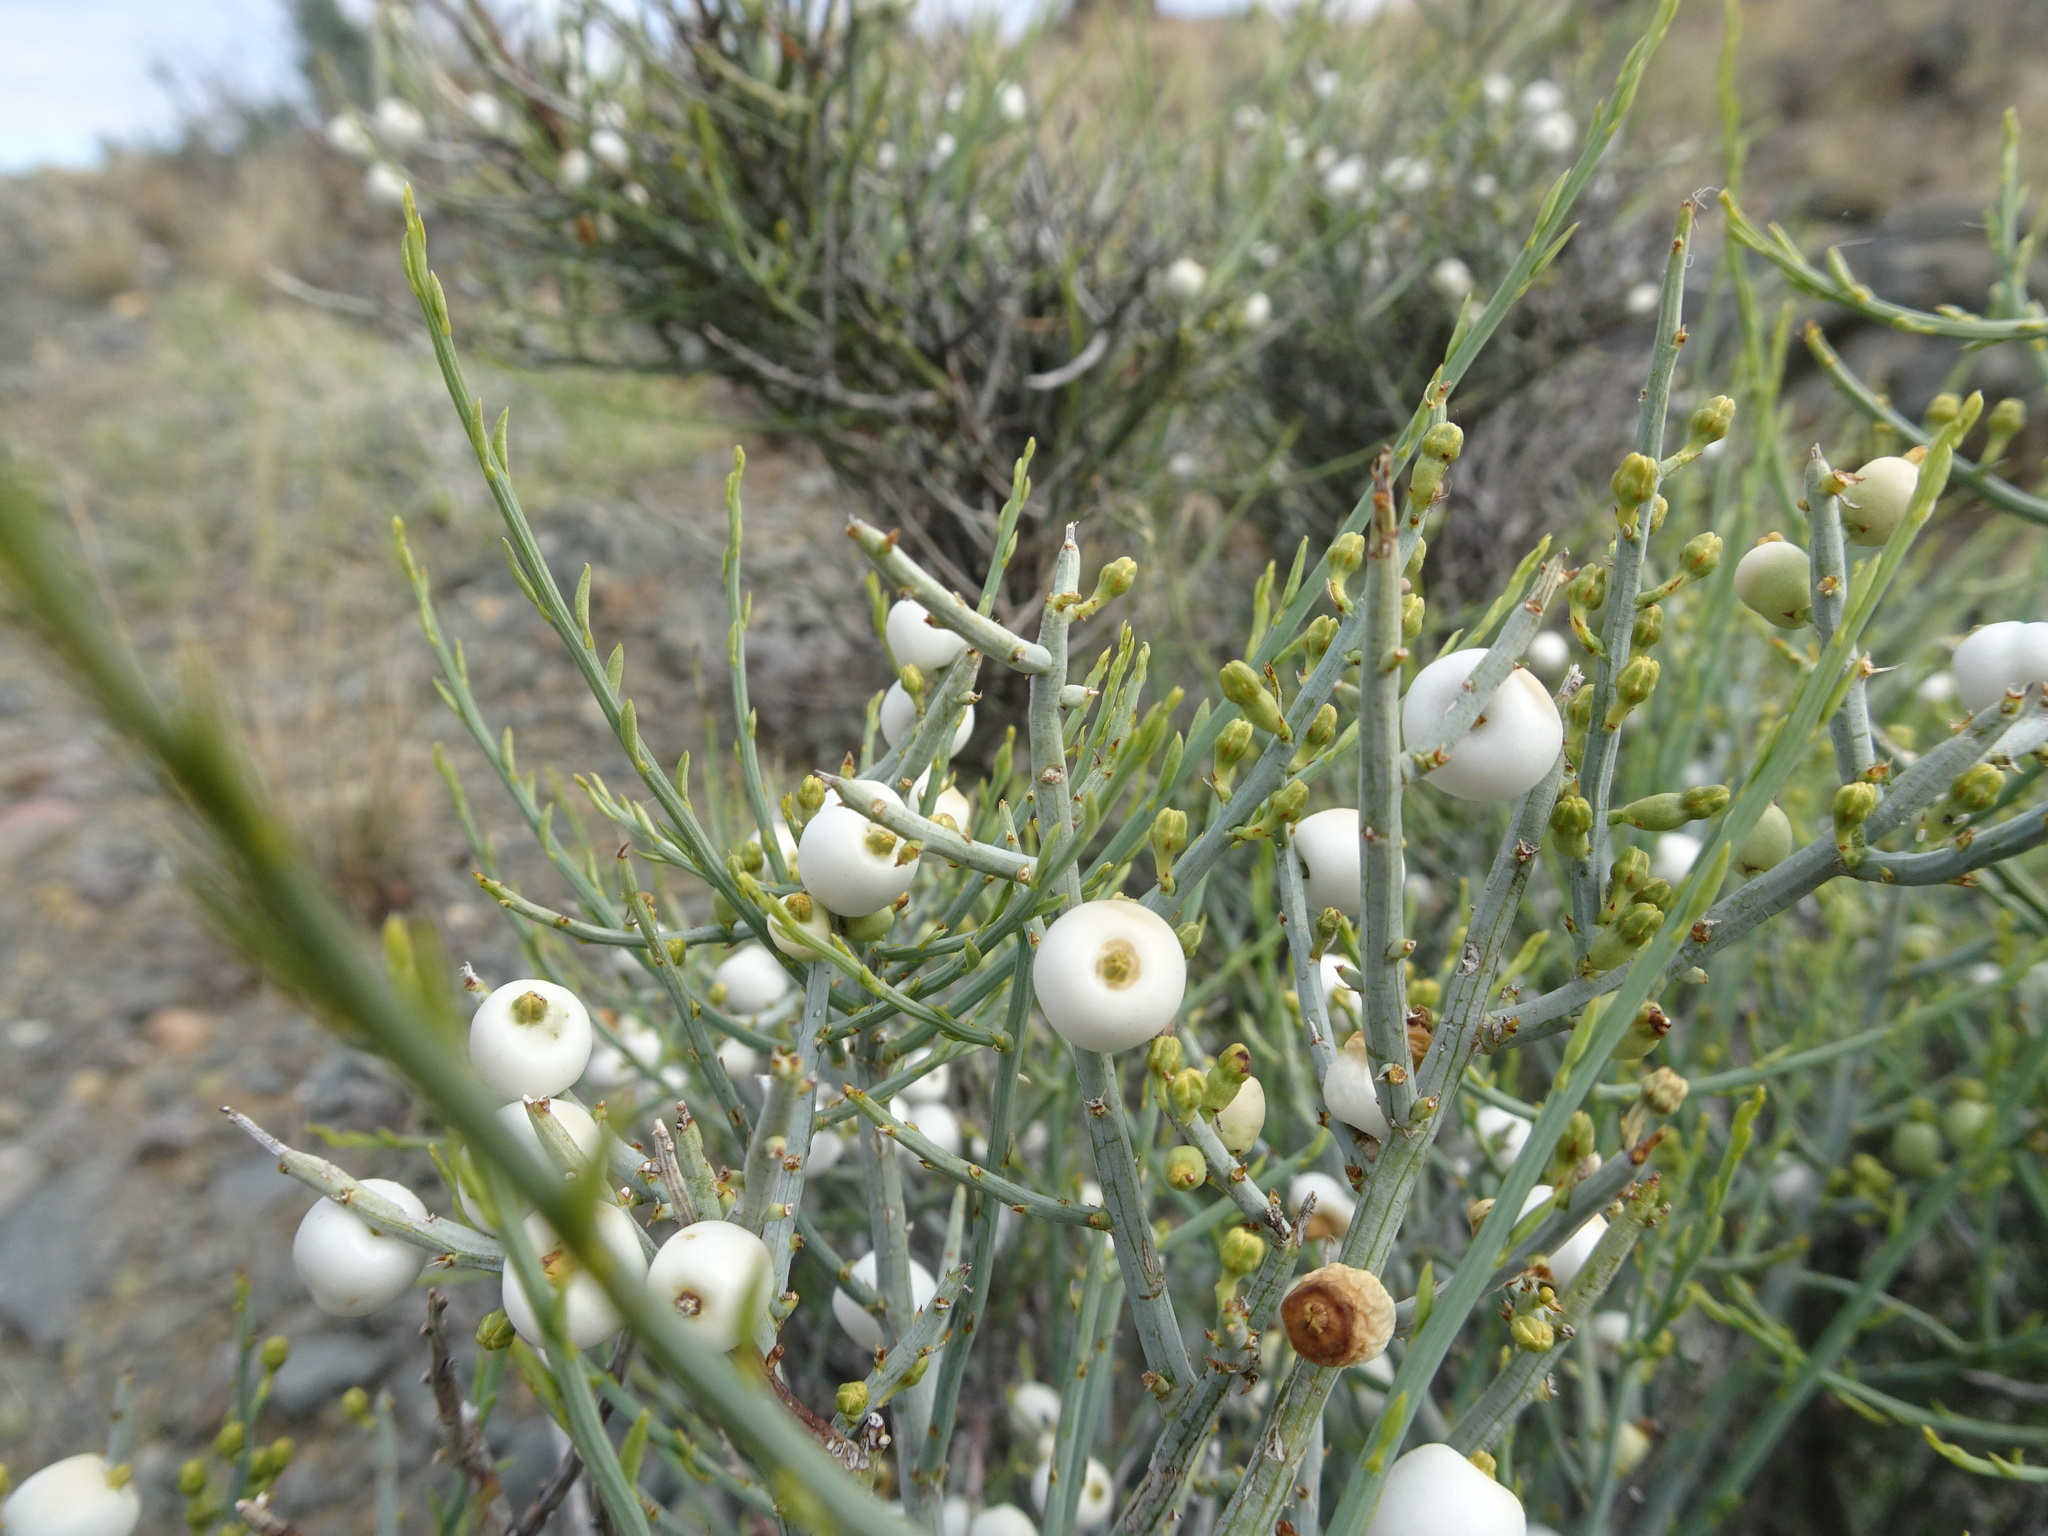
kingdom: Plantae
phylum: Tracheophyta
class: Magnoliopsida
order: Santalales
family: Thesiaceae
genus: Lacomucinaea
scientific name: Lacomucinaea lineata
